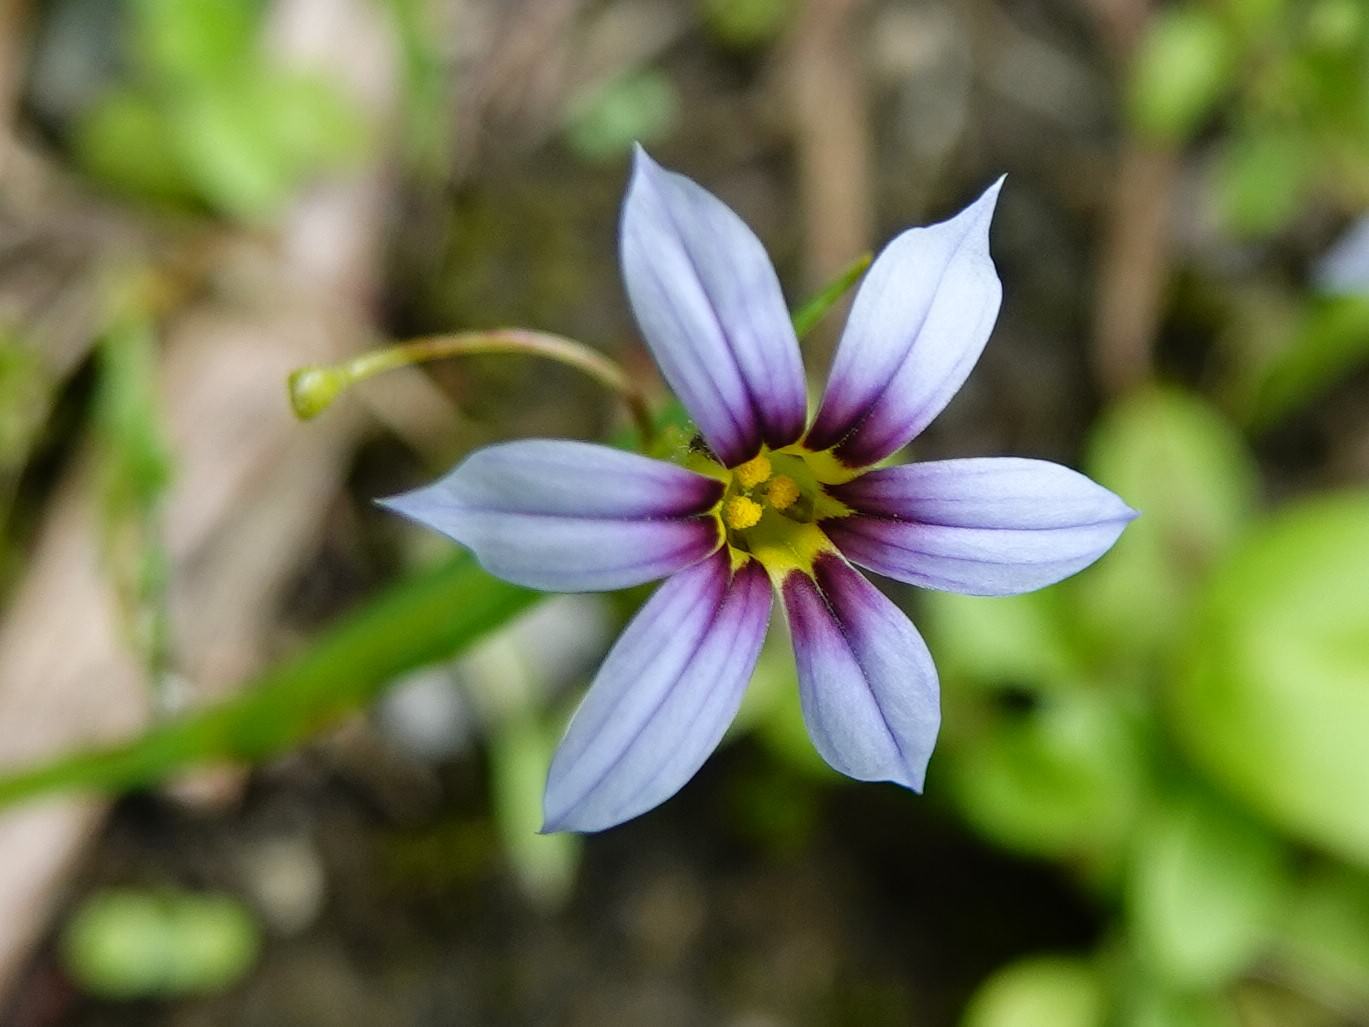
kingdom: Plantae
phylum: Tracheophyta
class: Liliopsida
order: Asparagales
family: Iridaceae
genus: Sisyrinchium
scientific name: Sisyrinchium micranthum
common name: Bermuda pigroot
